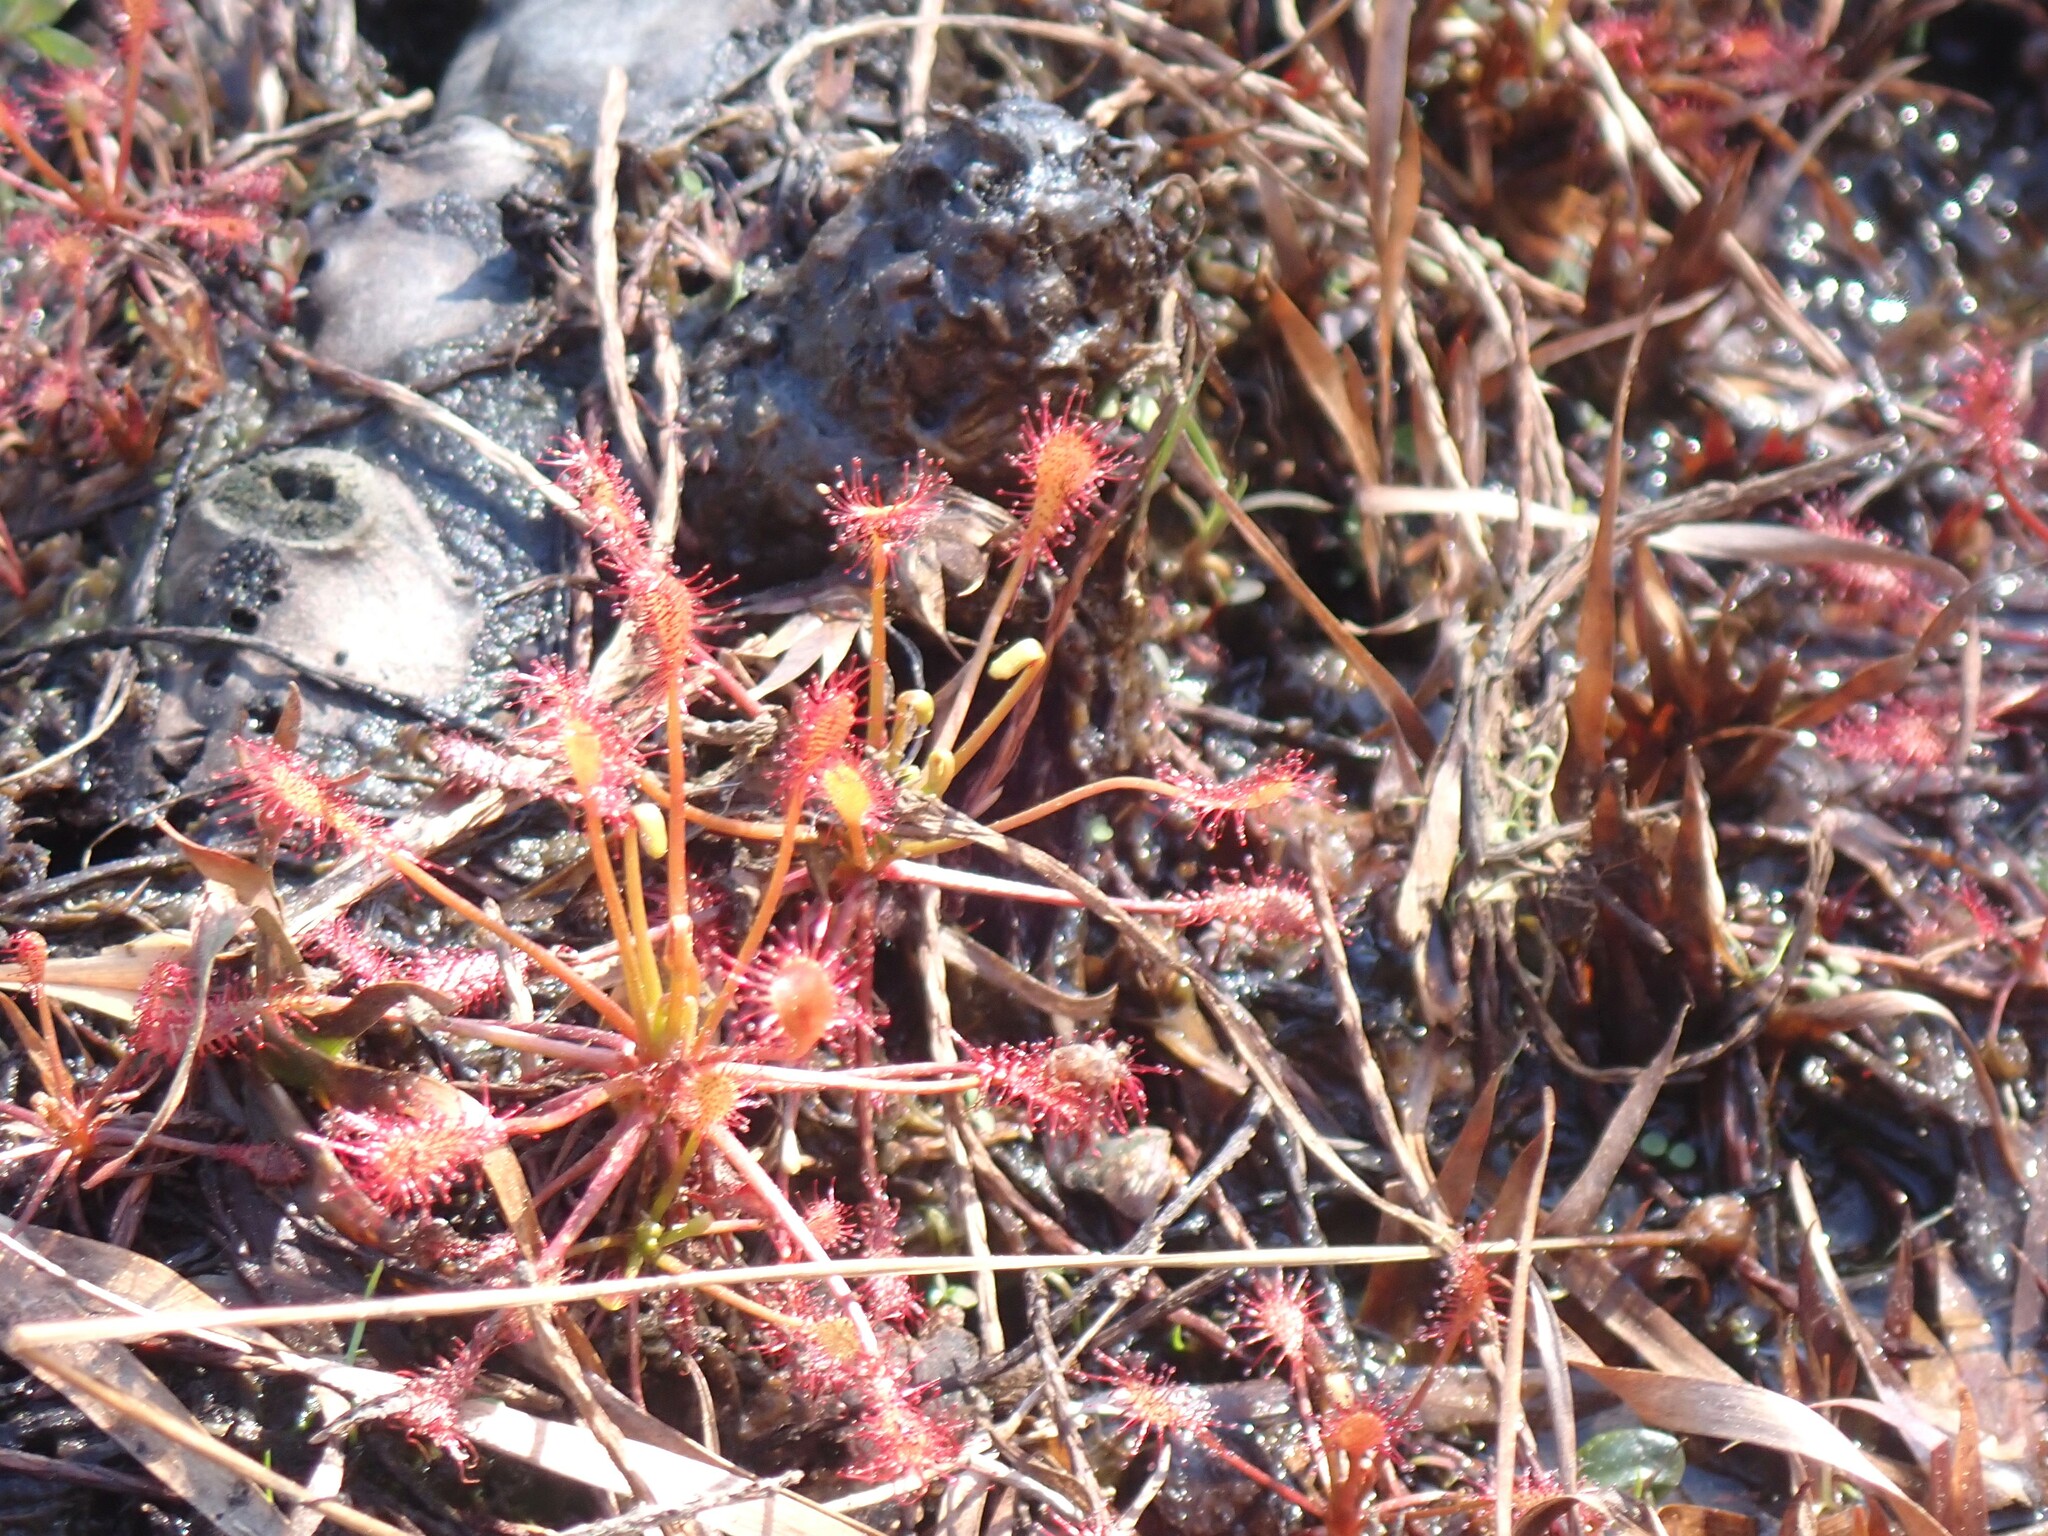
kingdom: Plantae
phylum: Tracheophyta
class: Magnoliopsida
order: Caryophyllales
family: Droseraceae
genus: Drosera
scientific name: Drosera intermedia
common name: Oblong-leaved sundew
